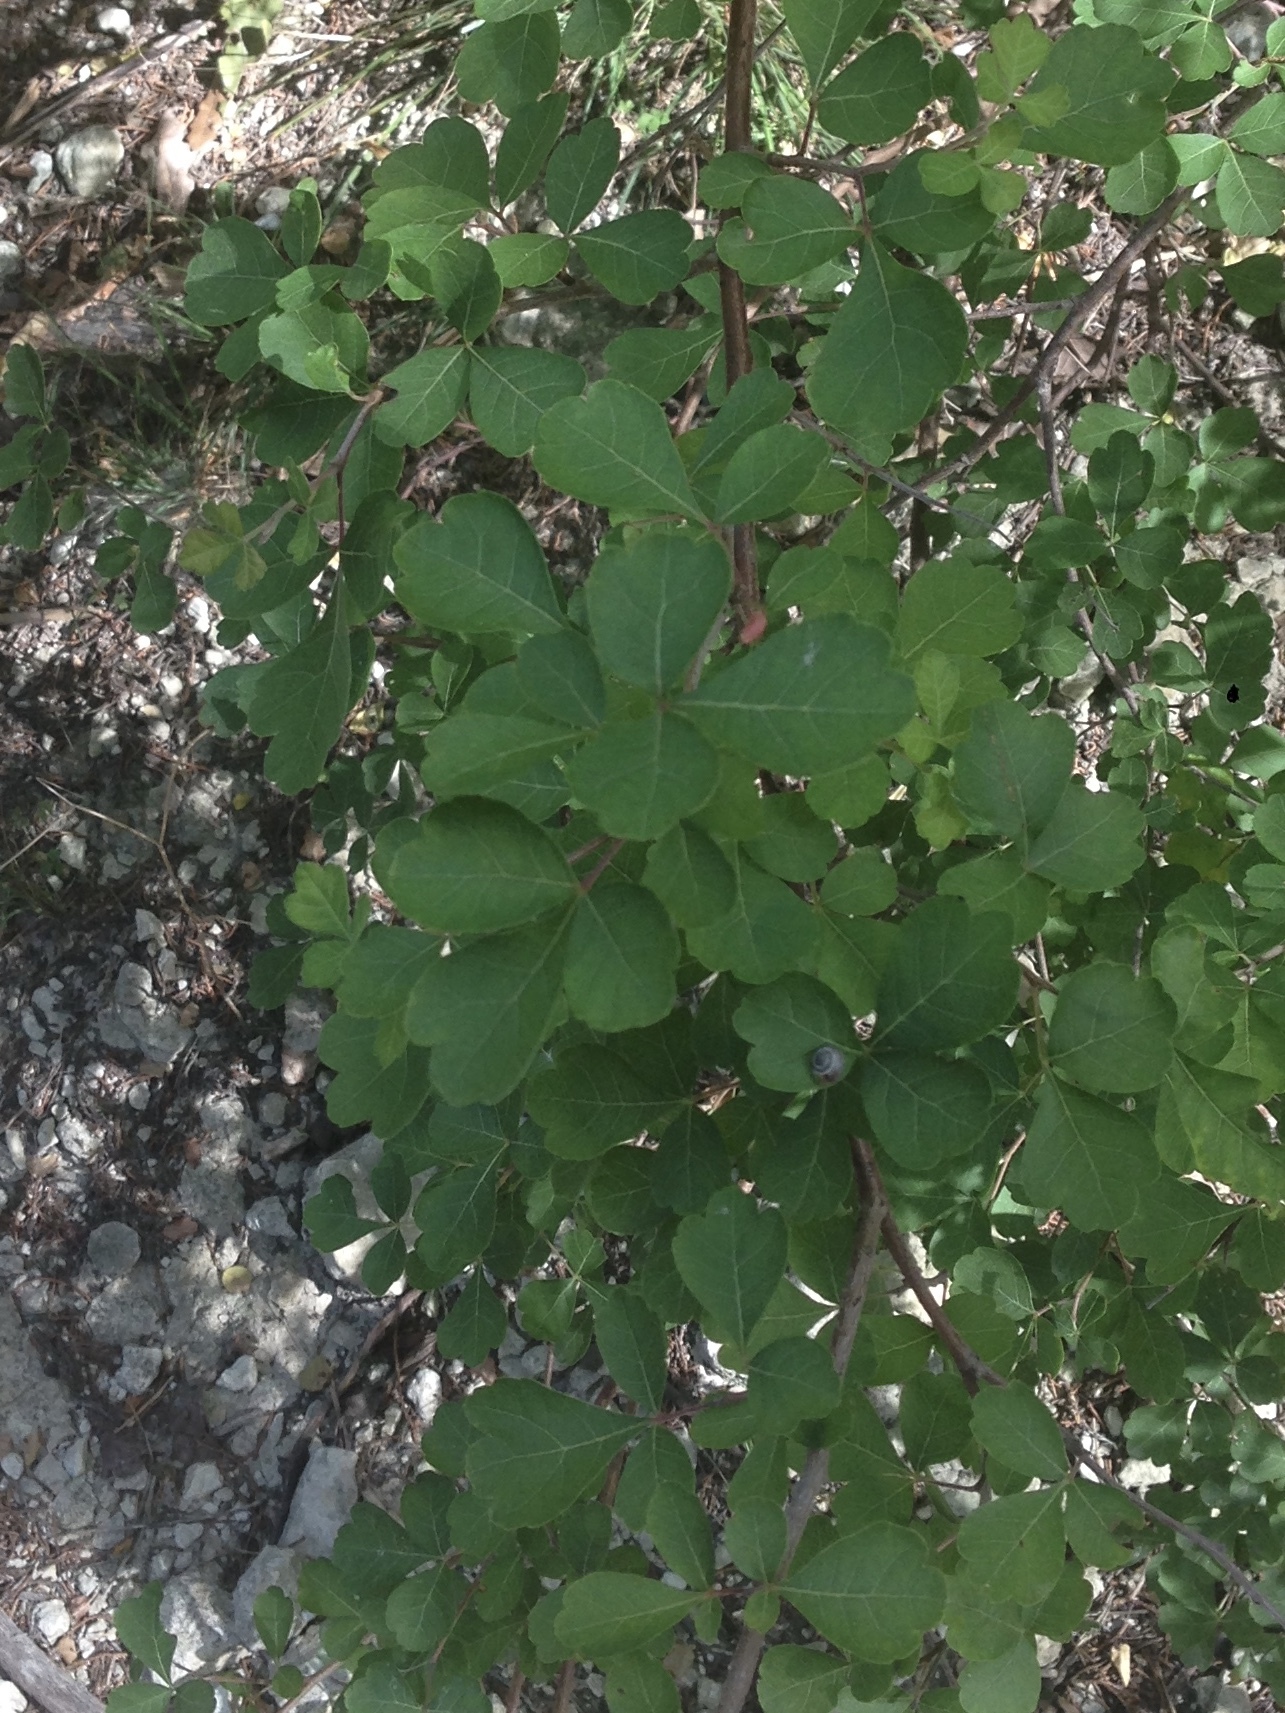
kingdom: Plantae
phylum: Tracheophyta
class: Magnoliopsida
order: Sapindales
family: Anacardiaceae
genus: Rhus
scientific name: Rhus aromatica
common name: Aromatic sumac
